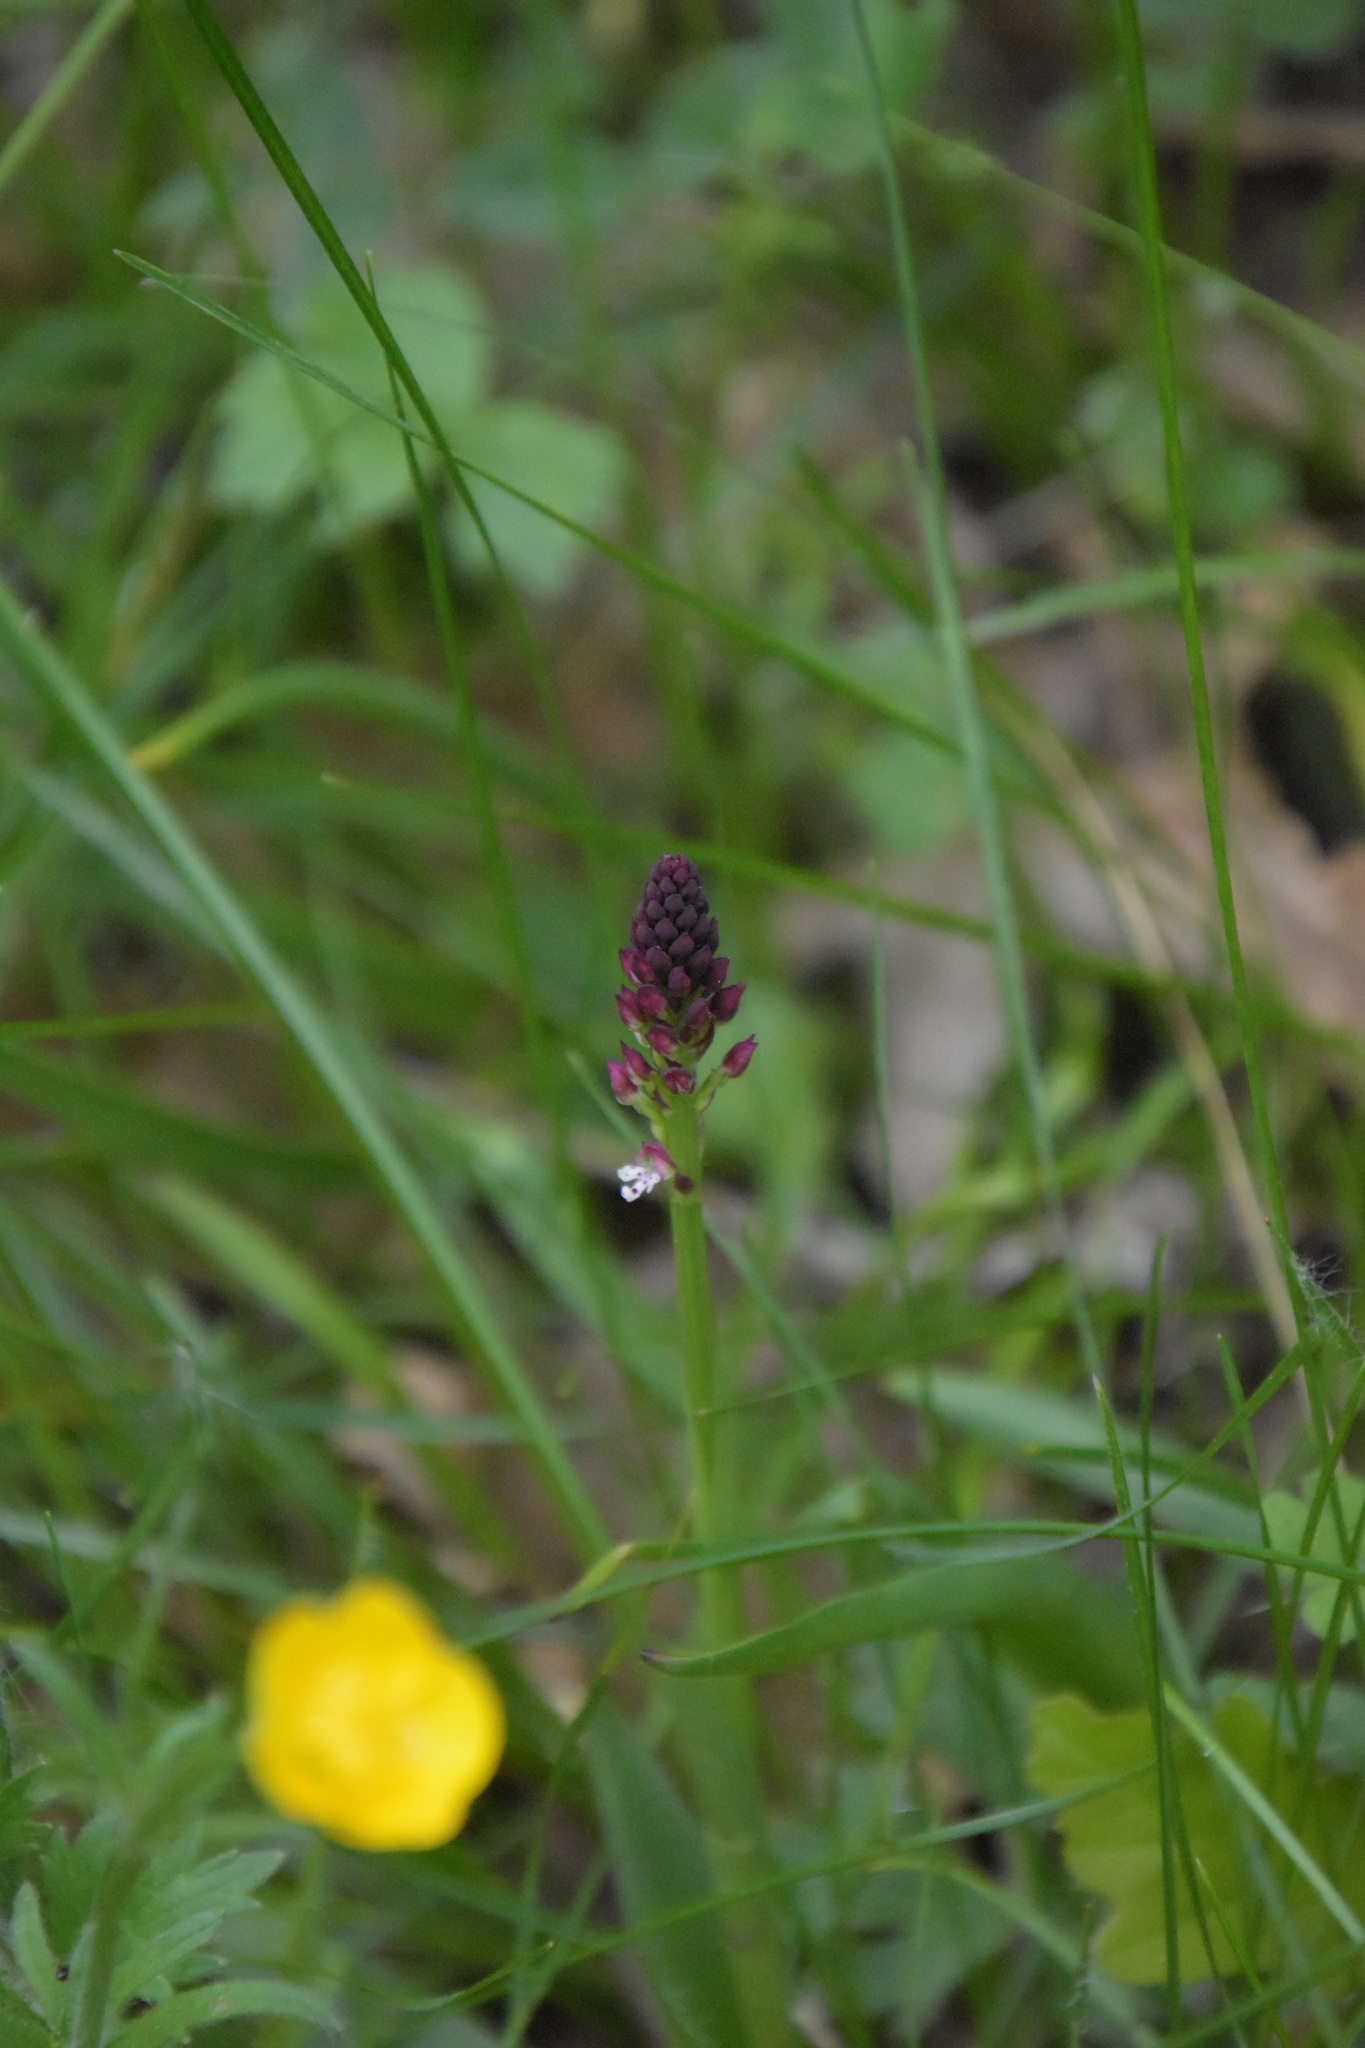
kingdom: Plantae
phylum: Tracheophyta
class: Liliopsida
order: Asparagales
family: Orchidaceae
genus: Neotinea
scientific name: Neotinea ustulata
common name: Burnt orchid
